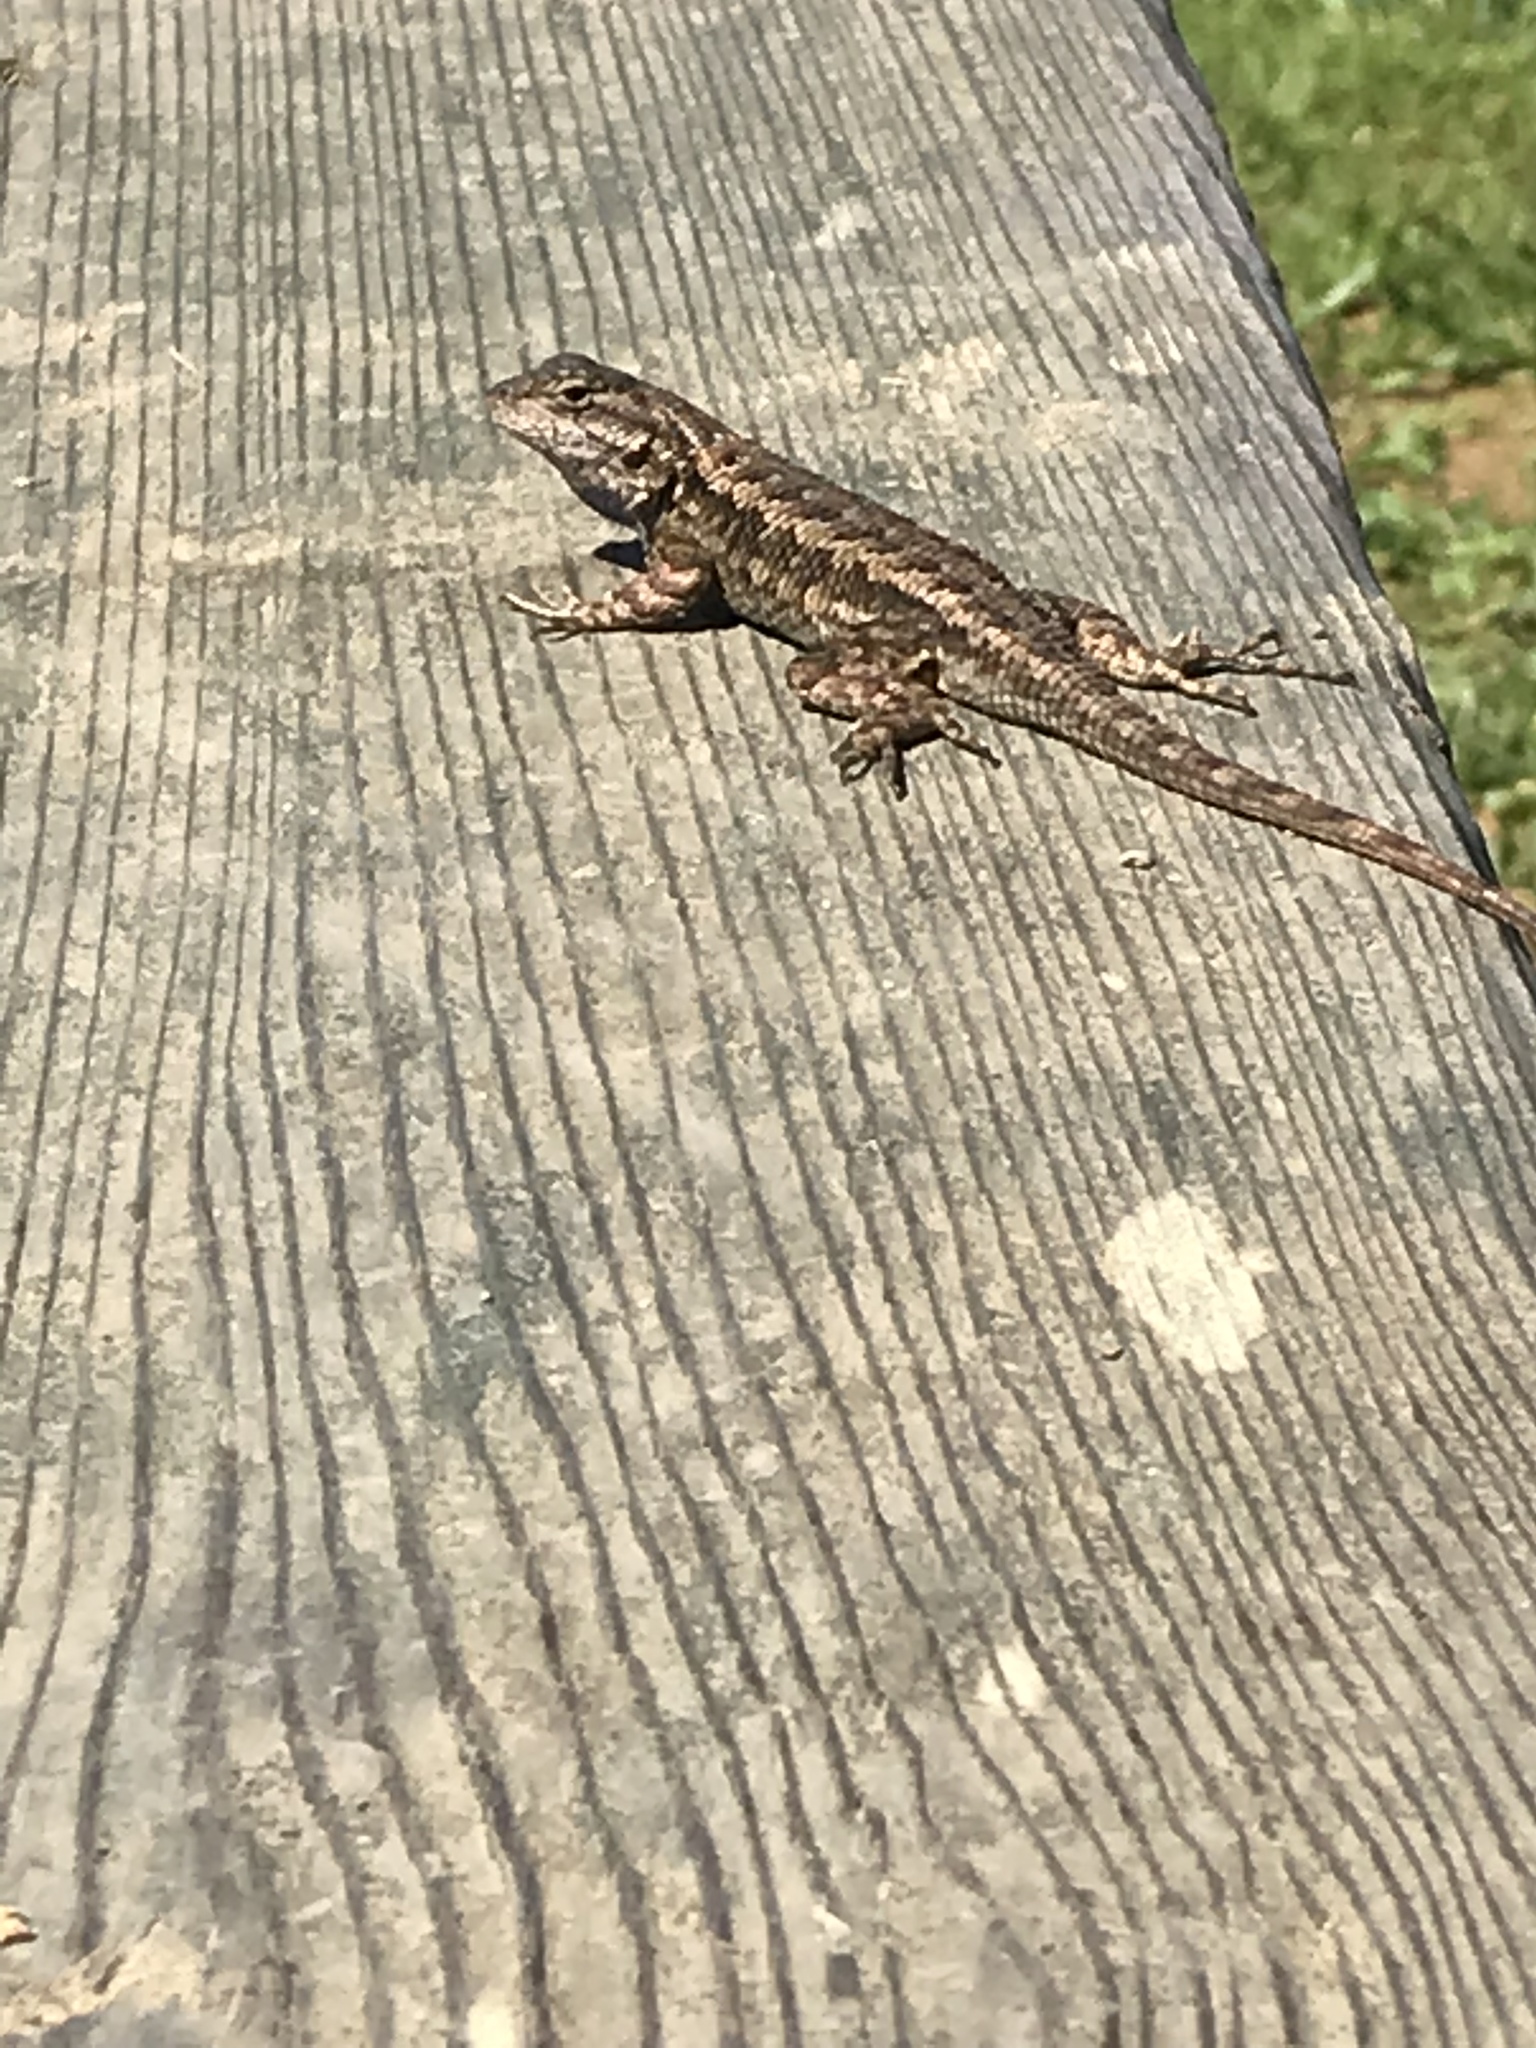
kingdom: Animalia
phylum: Chordata
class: Squamata
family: Phrynosomatidae
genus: Sceloporus
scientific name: Sceloporus occidentalis
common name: Western fence lizard
